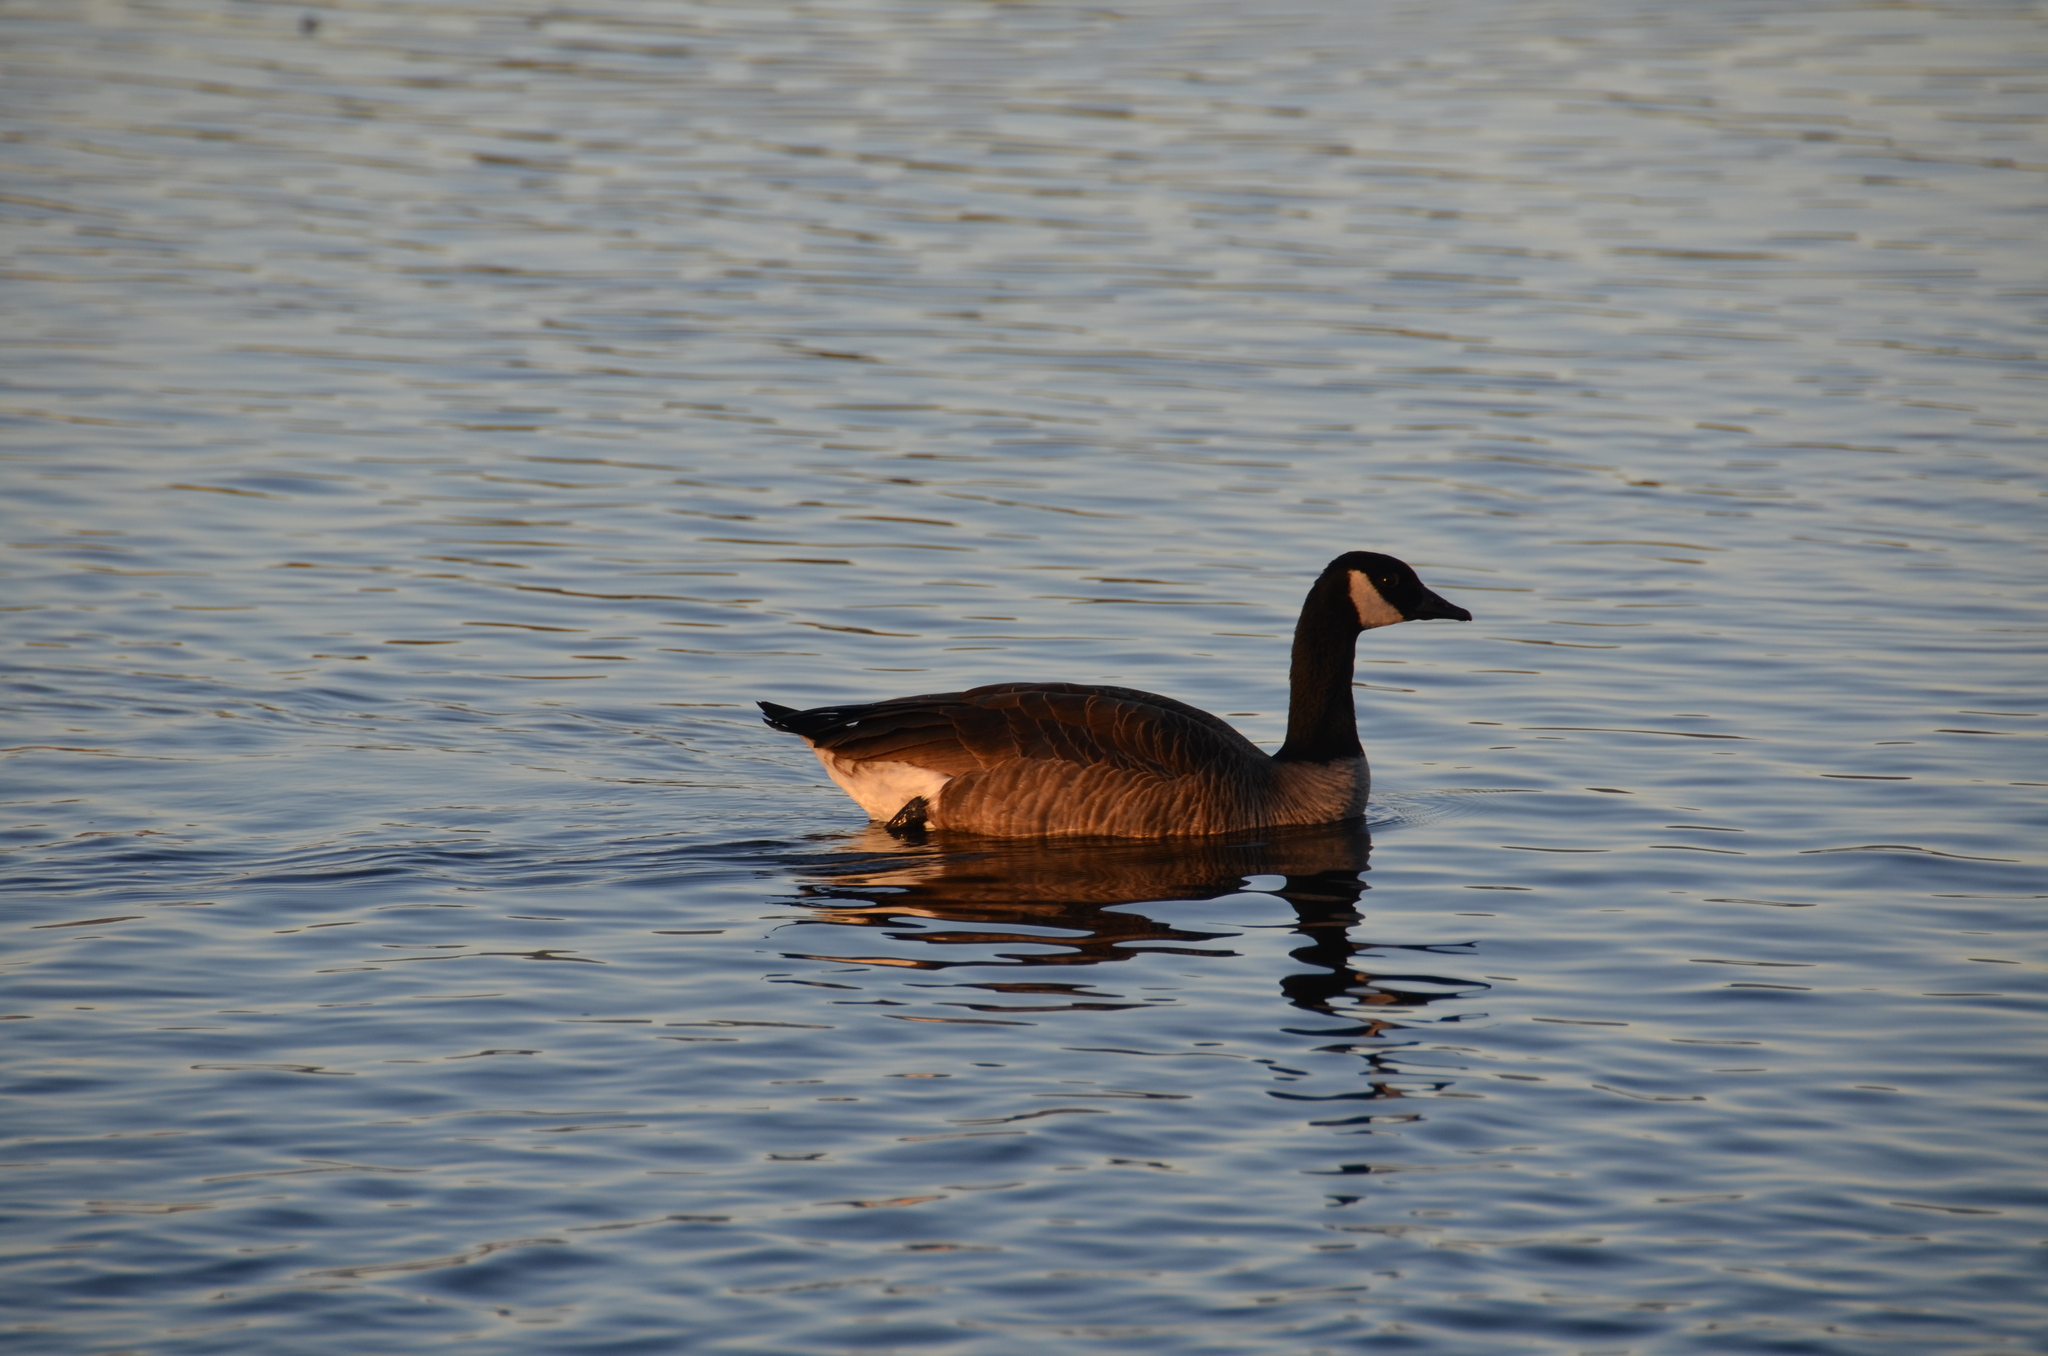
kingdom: Animalia
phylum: Chordata
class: Aves
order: Anseriformes
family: Anatidae
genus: Branta
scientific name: Branta canadensis
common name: Canada goose
